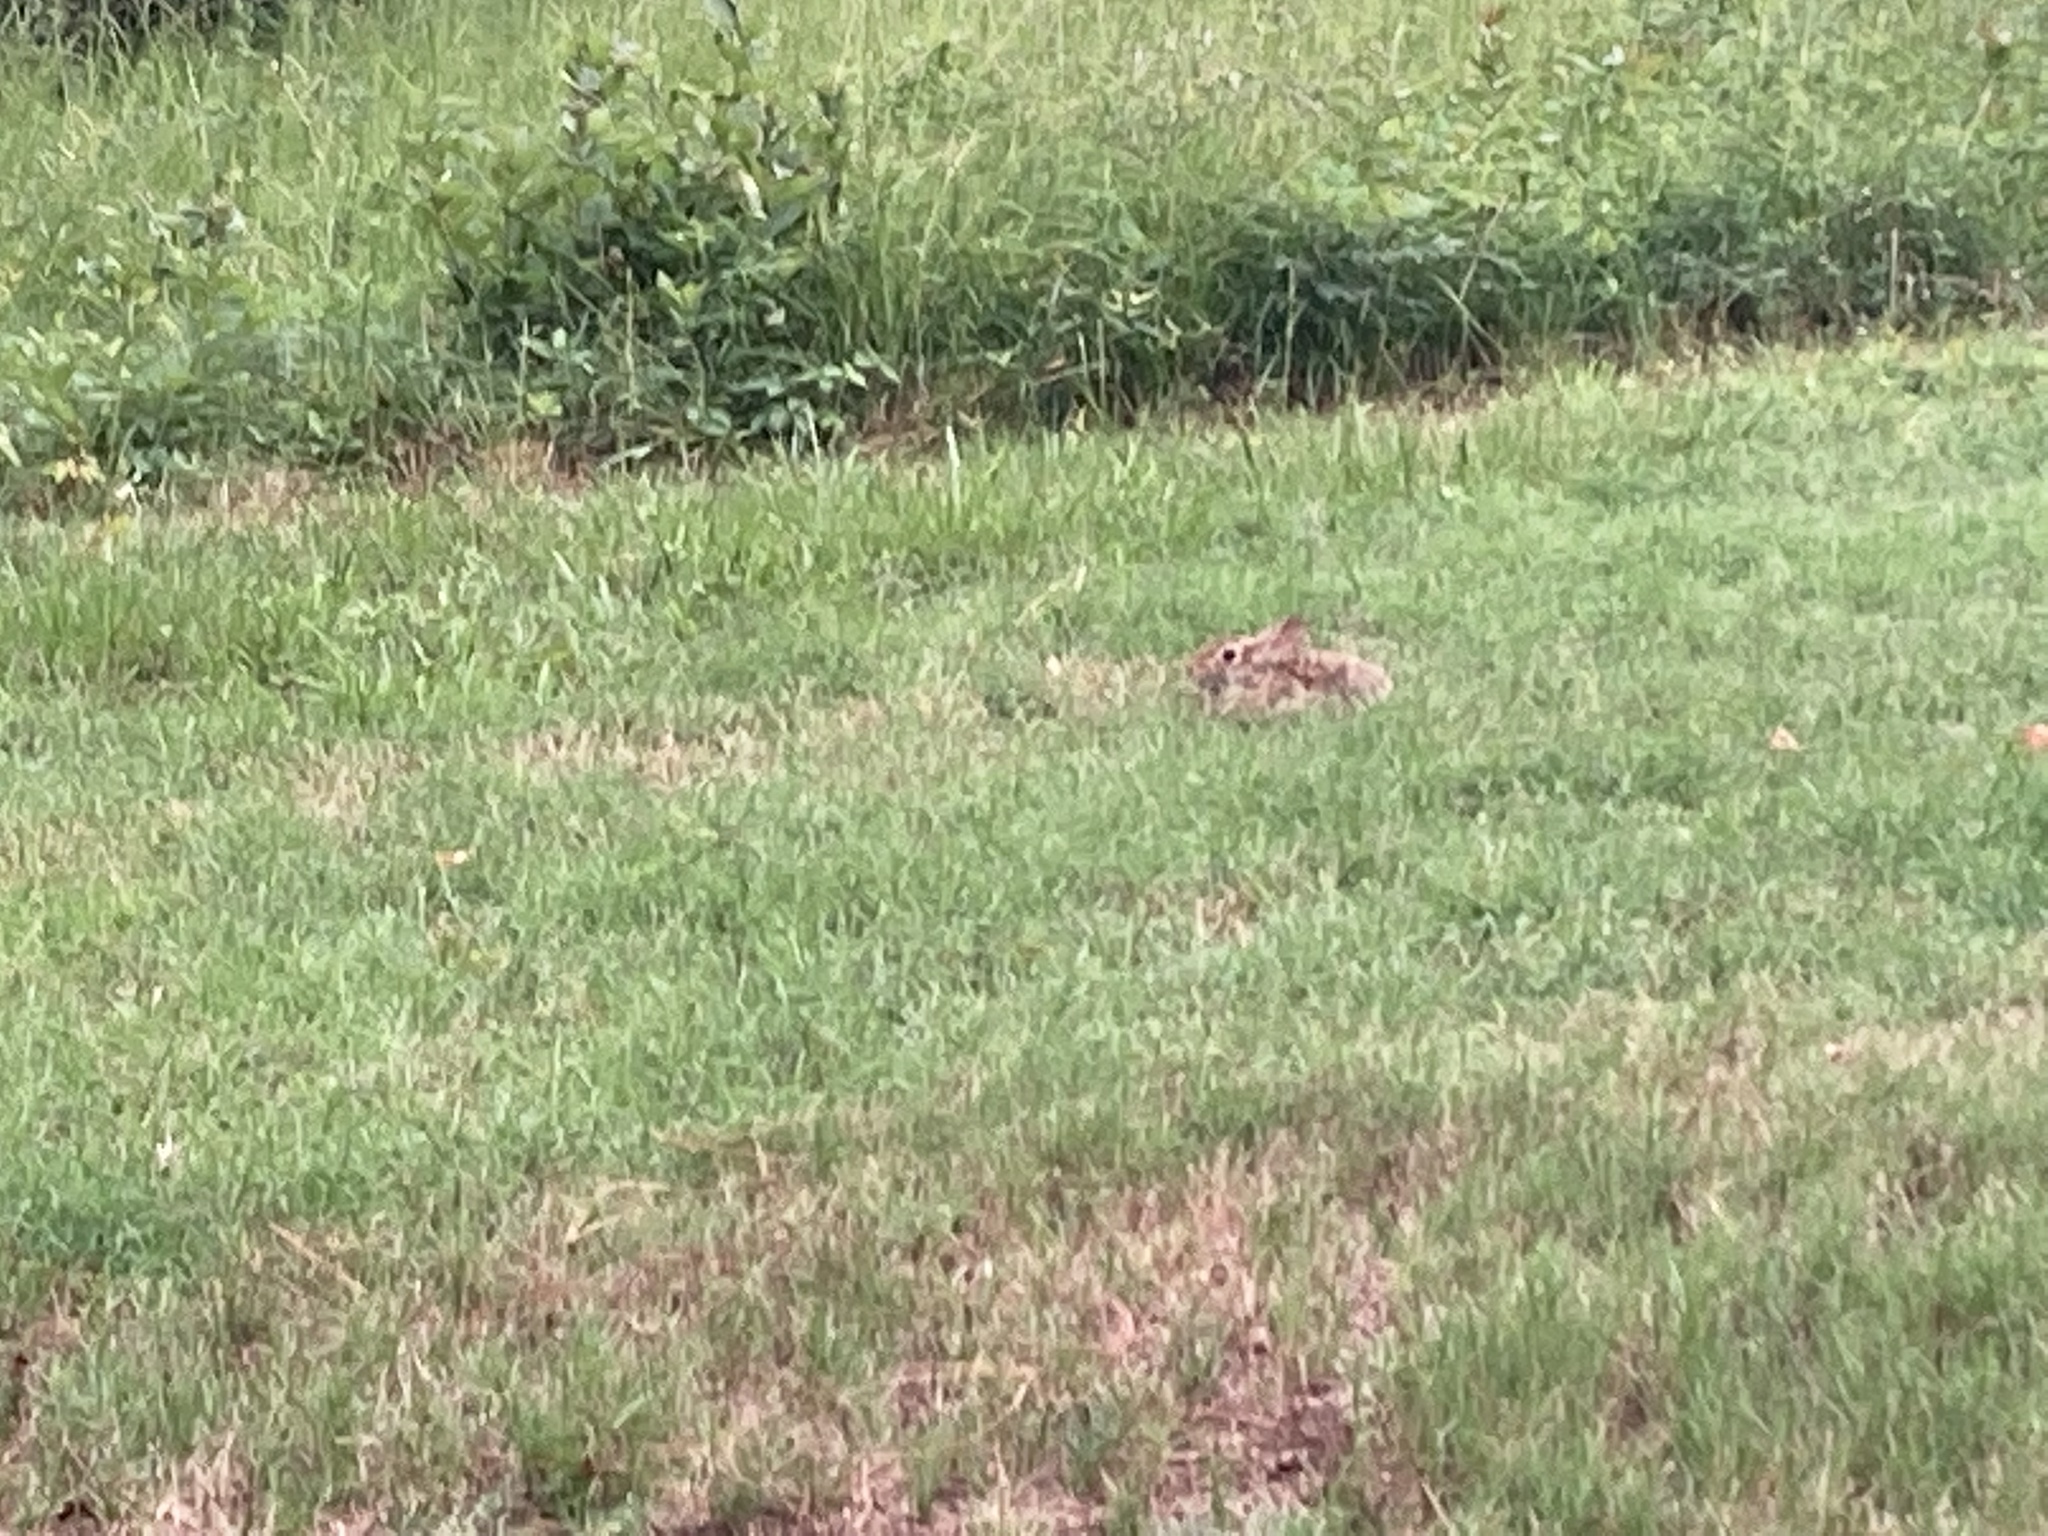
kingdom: Animalia
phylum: Chordata
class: Mammalia
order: Lagomorpha
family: Leporidae
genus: Sylvilagus
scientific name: Sylvilagus floridanus
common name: Eastern cottontail
